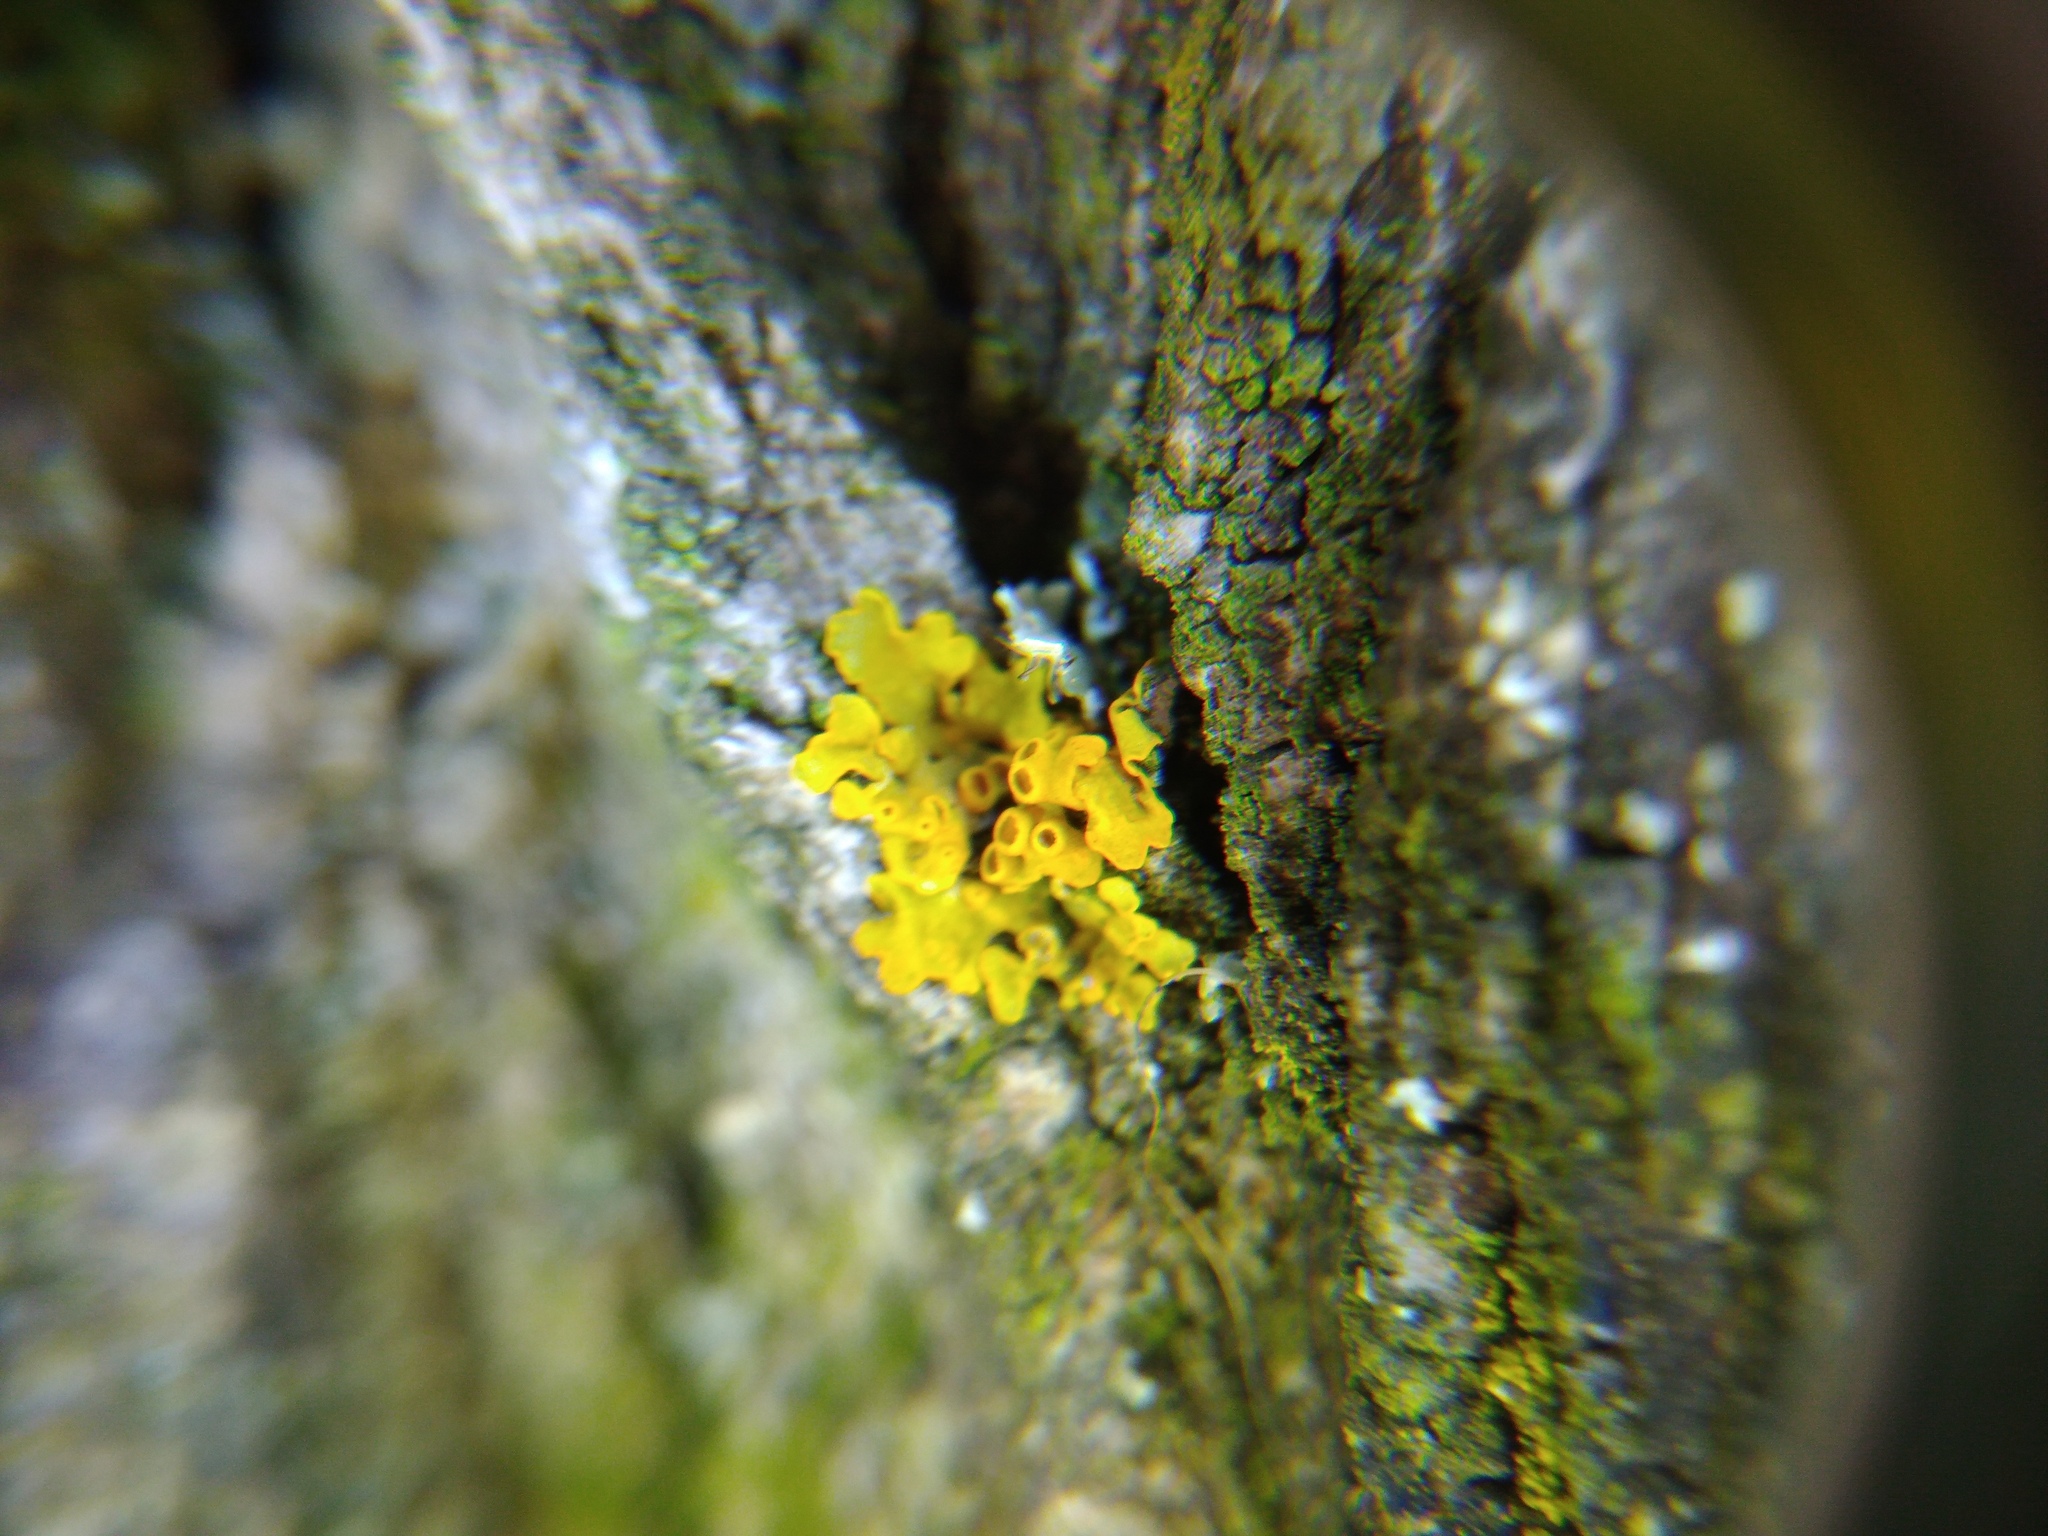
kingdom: Fungi
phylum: Ascomycota
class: Lecanoromycetes
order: Teloschistales
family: Teloschistaceae
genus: Xanthoria
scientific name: Xanthoria parietina
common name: Common orange lichen
